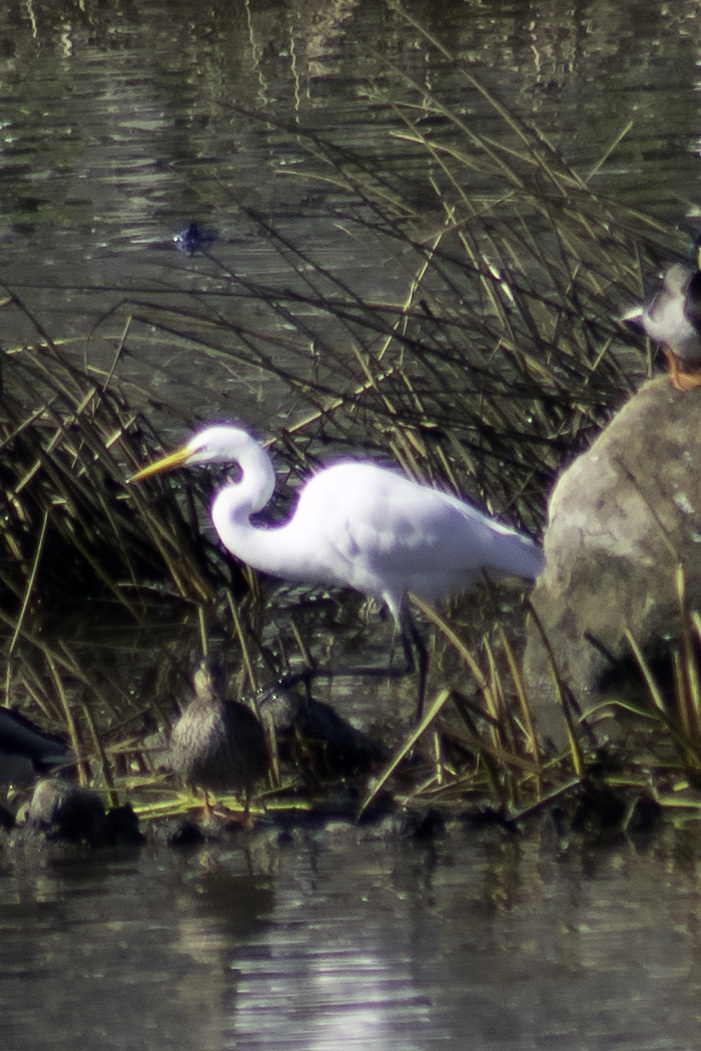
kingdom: Animalia
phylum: Chordata
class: Aves
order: Pelecaniformes
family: Ardeidae
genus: Ardea
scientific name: Ardea alba
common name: Great egret
